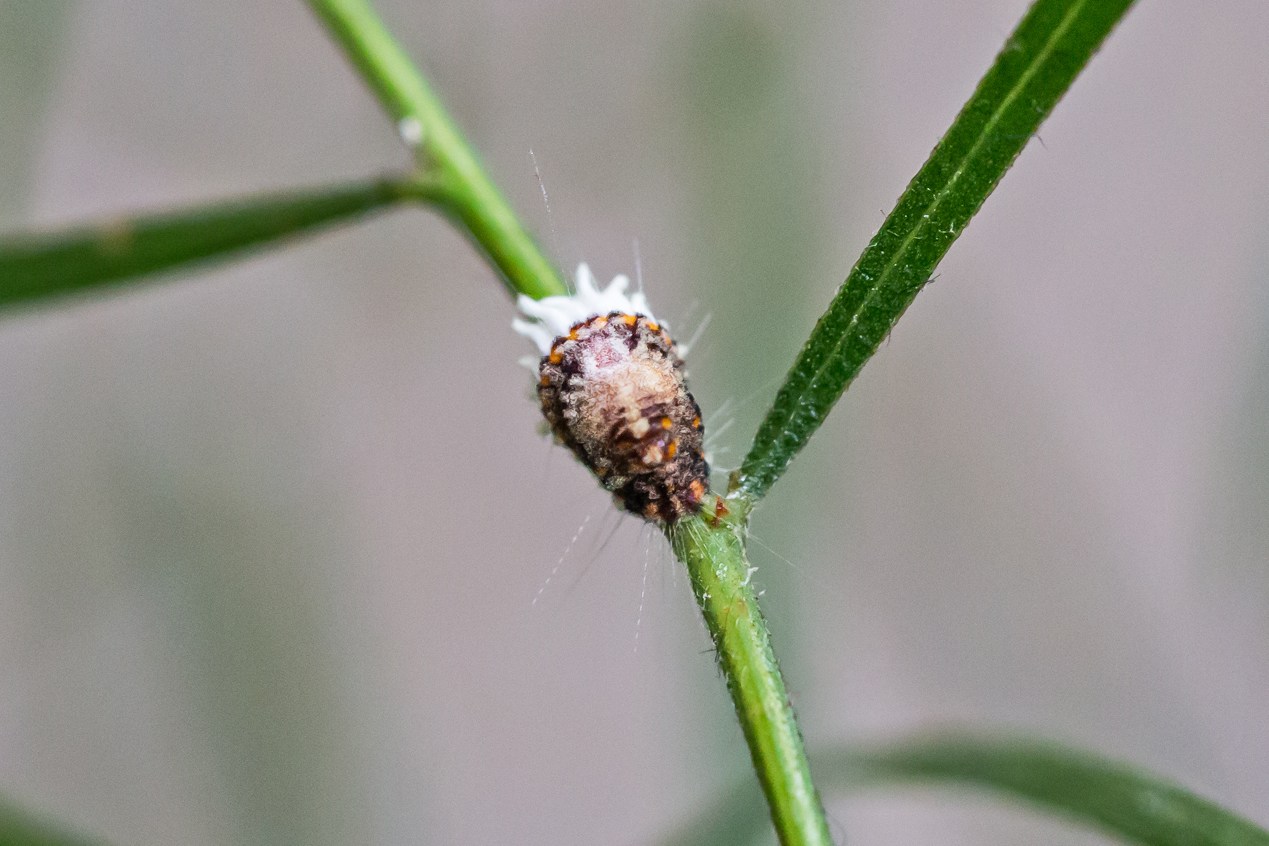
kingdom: Animalia
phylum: Arthropoda
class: Insecta
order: Hemiptera
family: Margarodidae
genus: Icerya
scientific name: Icerya purchasi
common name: Cottony cushion scale
